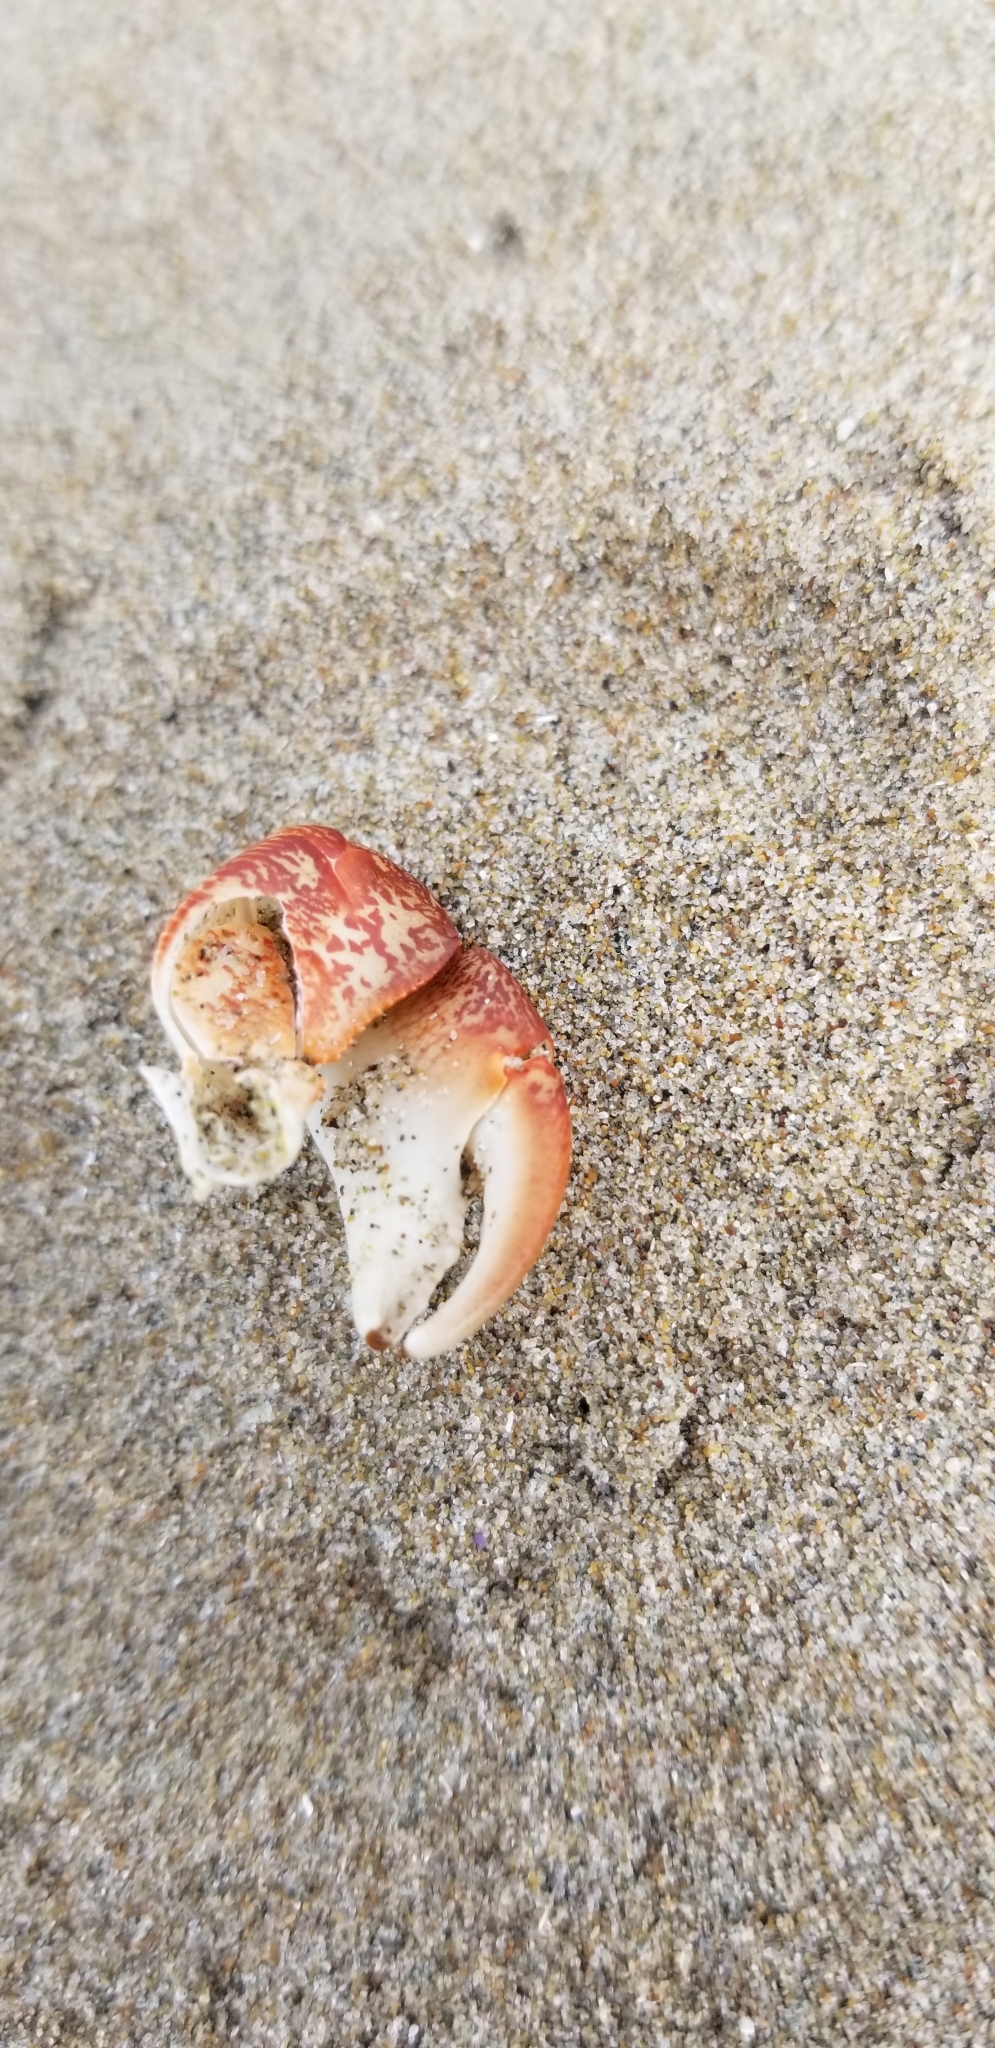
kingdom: Animalia
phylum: Arthropoda
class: Malacostraca
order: Decapoda
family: Grapsidae
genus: Pachygrapsus
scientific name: Pachygrapsus crassipes
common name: Striped shore crab
